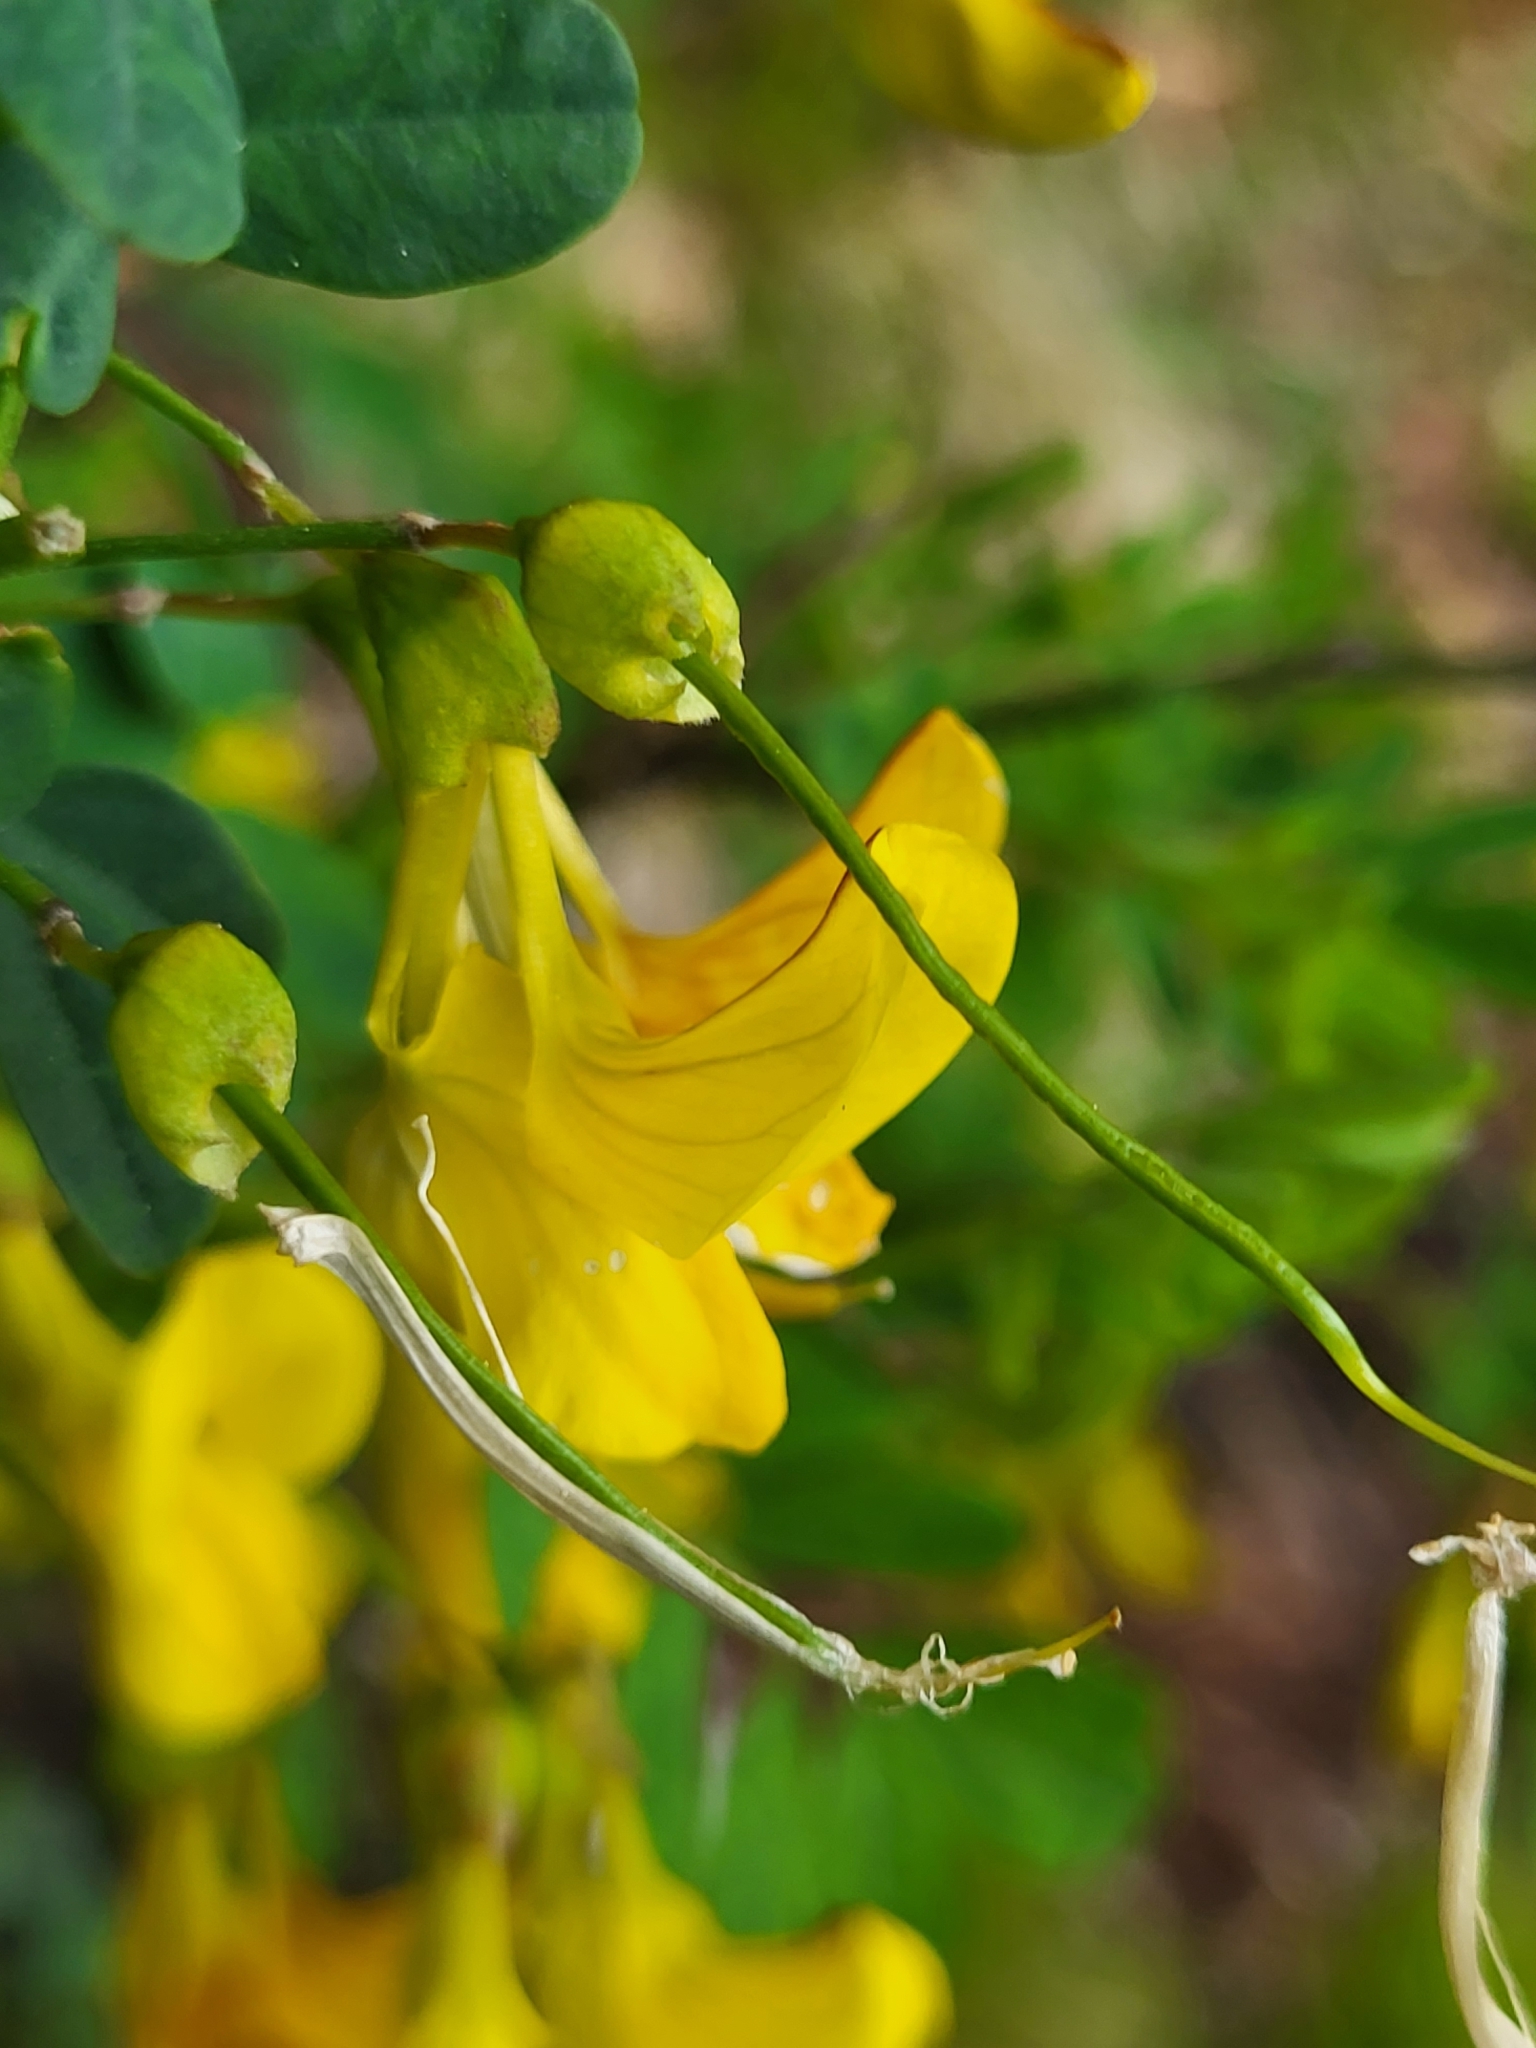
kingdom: Plantae
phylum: Tracheophyta
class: Magnoliopsida
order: Fabales
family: Fabaceae
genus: Hippocrepis
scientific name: Hippocrepis emerus
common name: Scorpion senna
